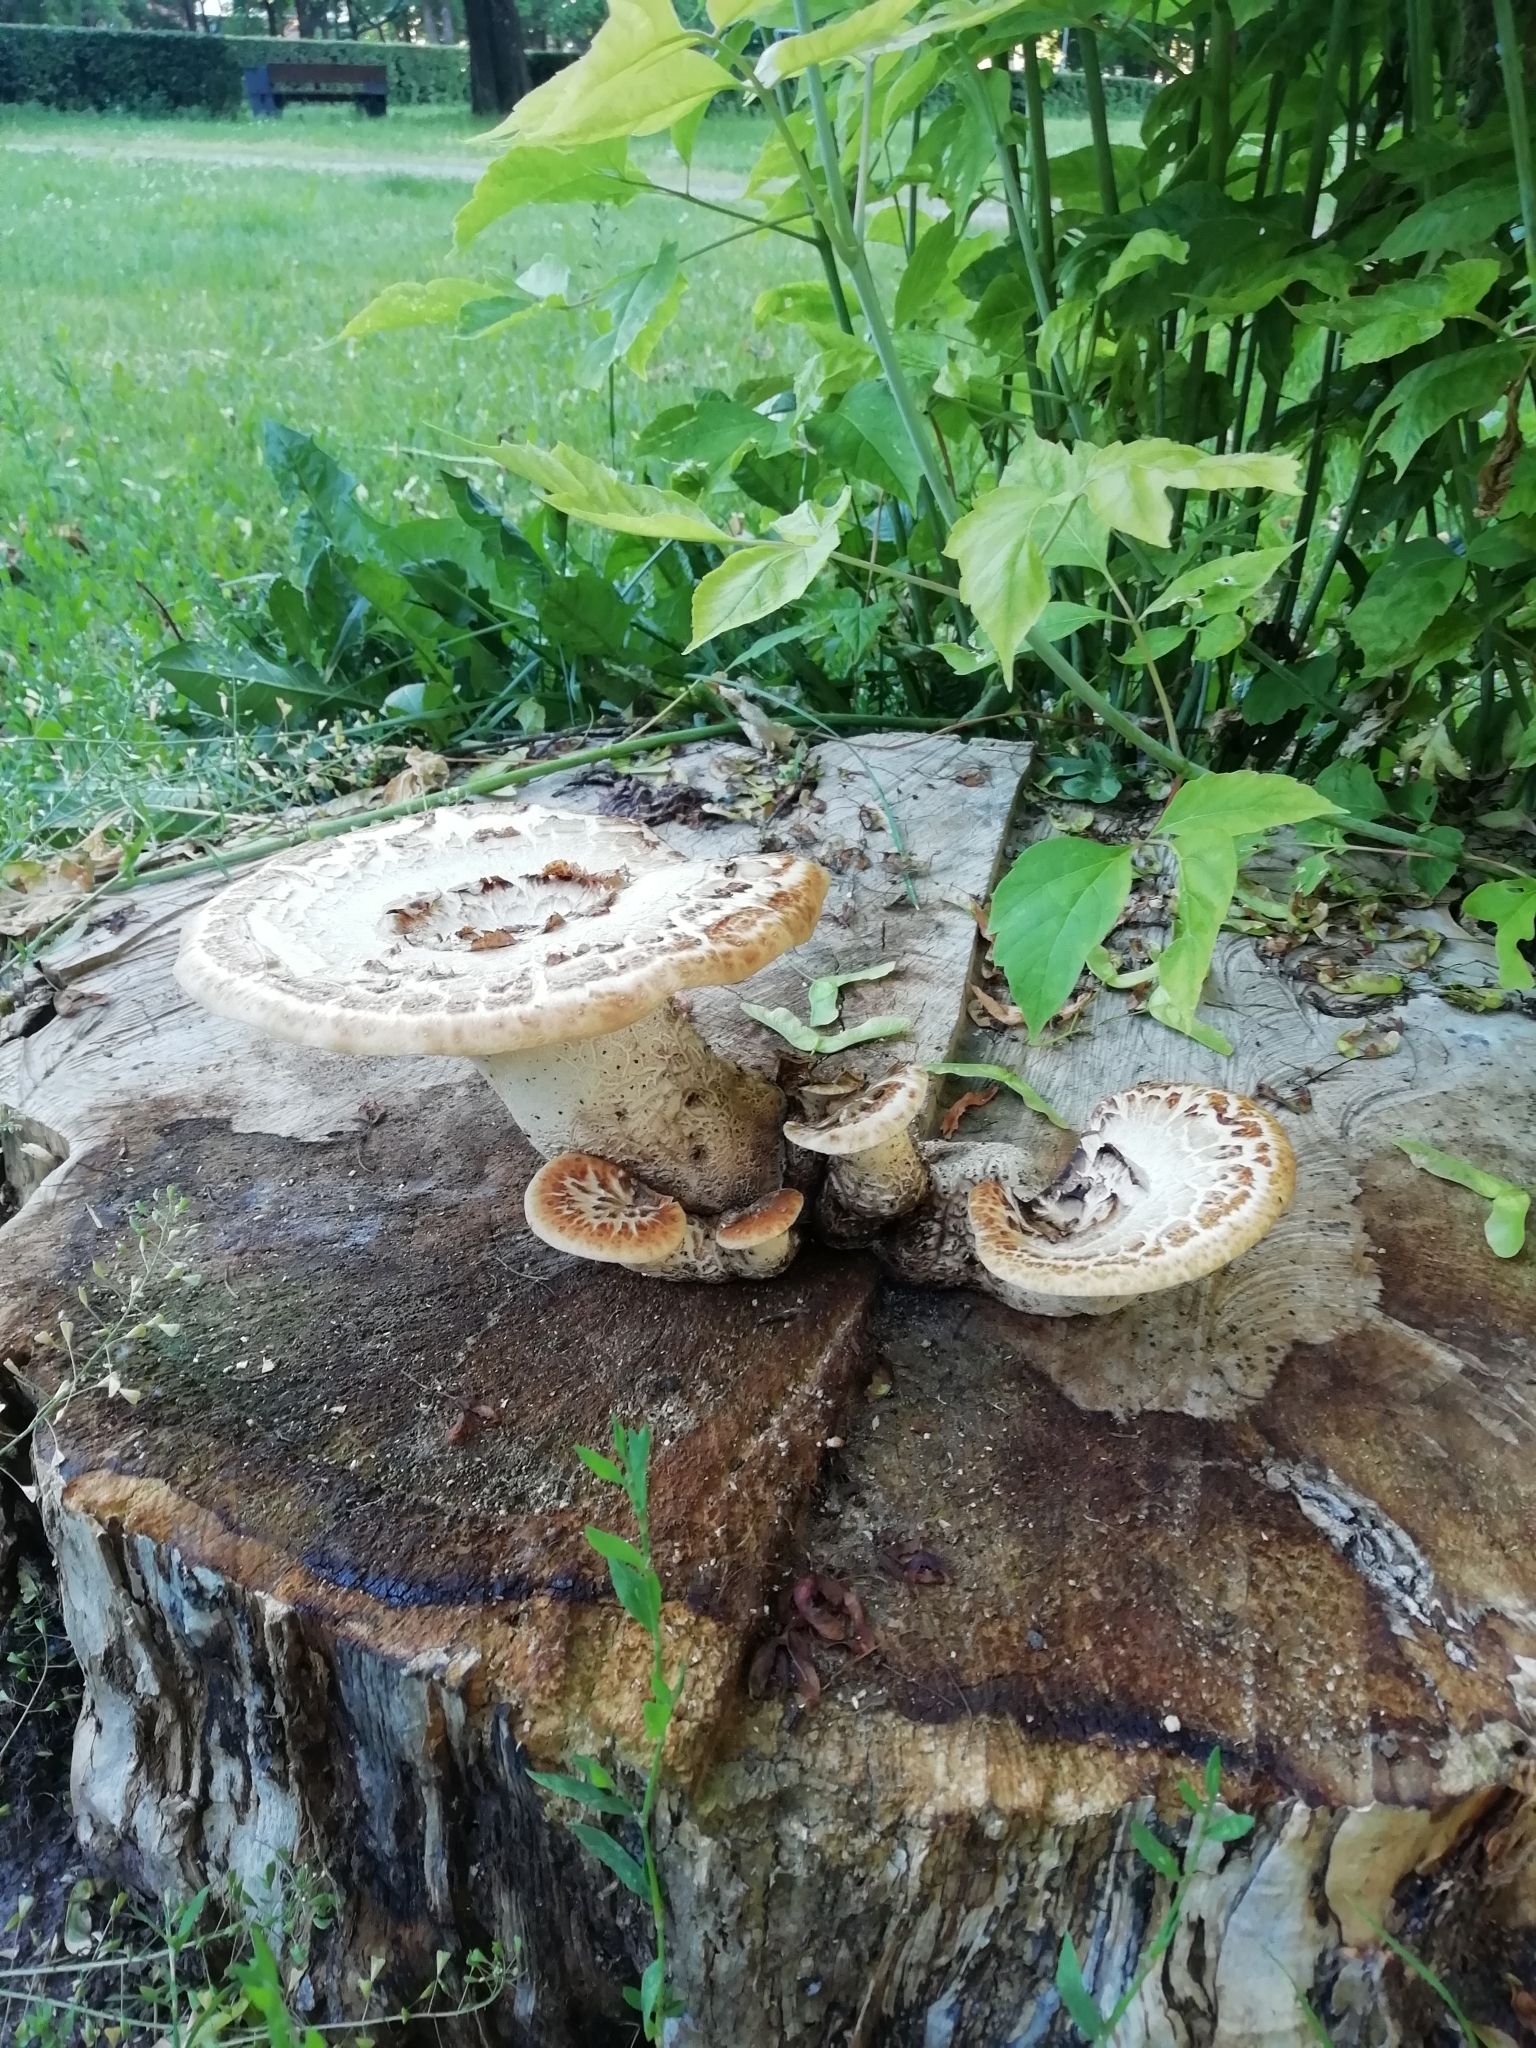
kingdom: Fungi
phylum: Basidiomycota
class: Agaricomycetes
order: Polyporales
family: Polyporaceae
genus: Cerioporus
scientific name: Cerioporus squamosus
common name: Dryad's saddle
